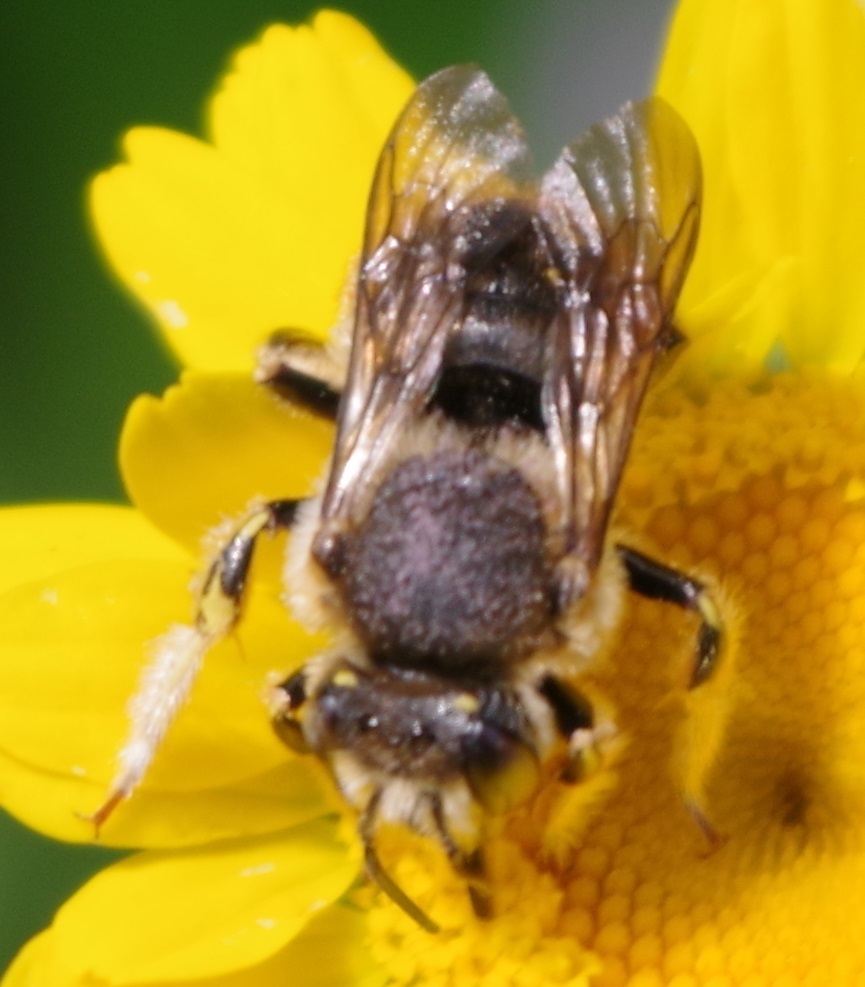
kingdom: Animalia
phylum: Arthropoda
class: Insecta
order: Hymenoptera
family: Megachilidae
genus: Anthidium
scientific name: Anthidium manicatum
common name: Wool carder bee
